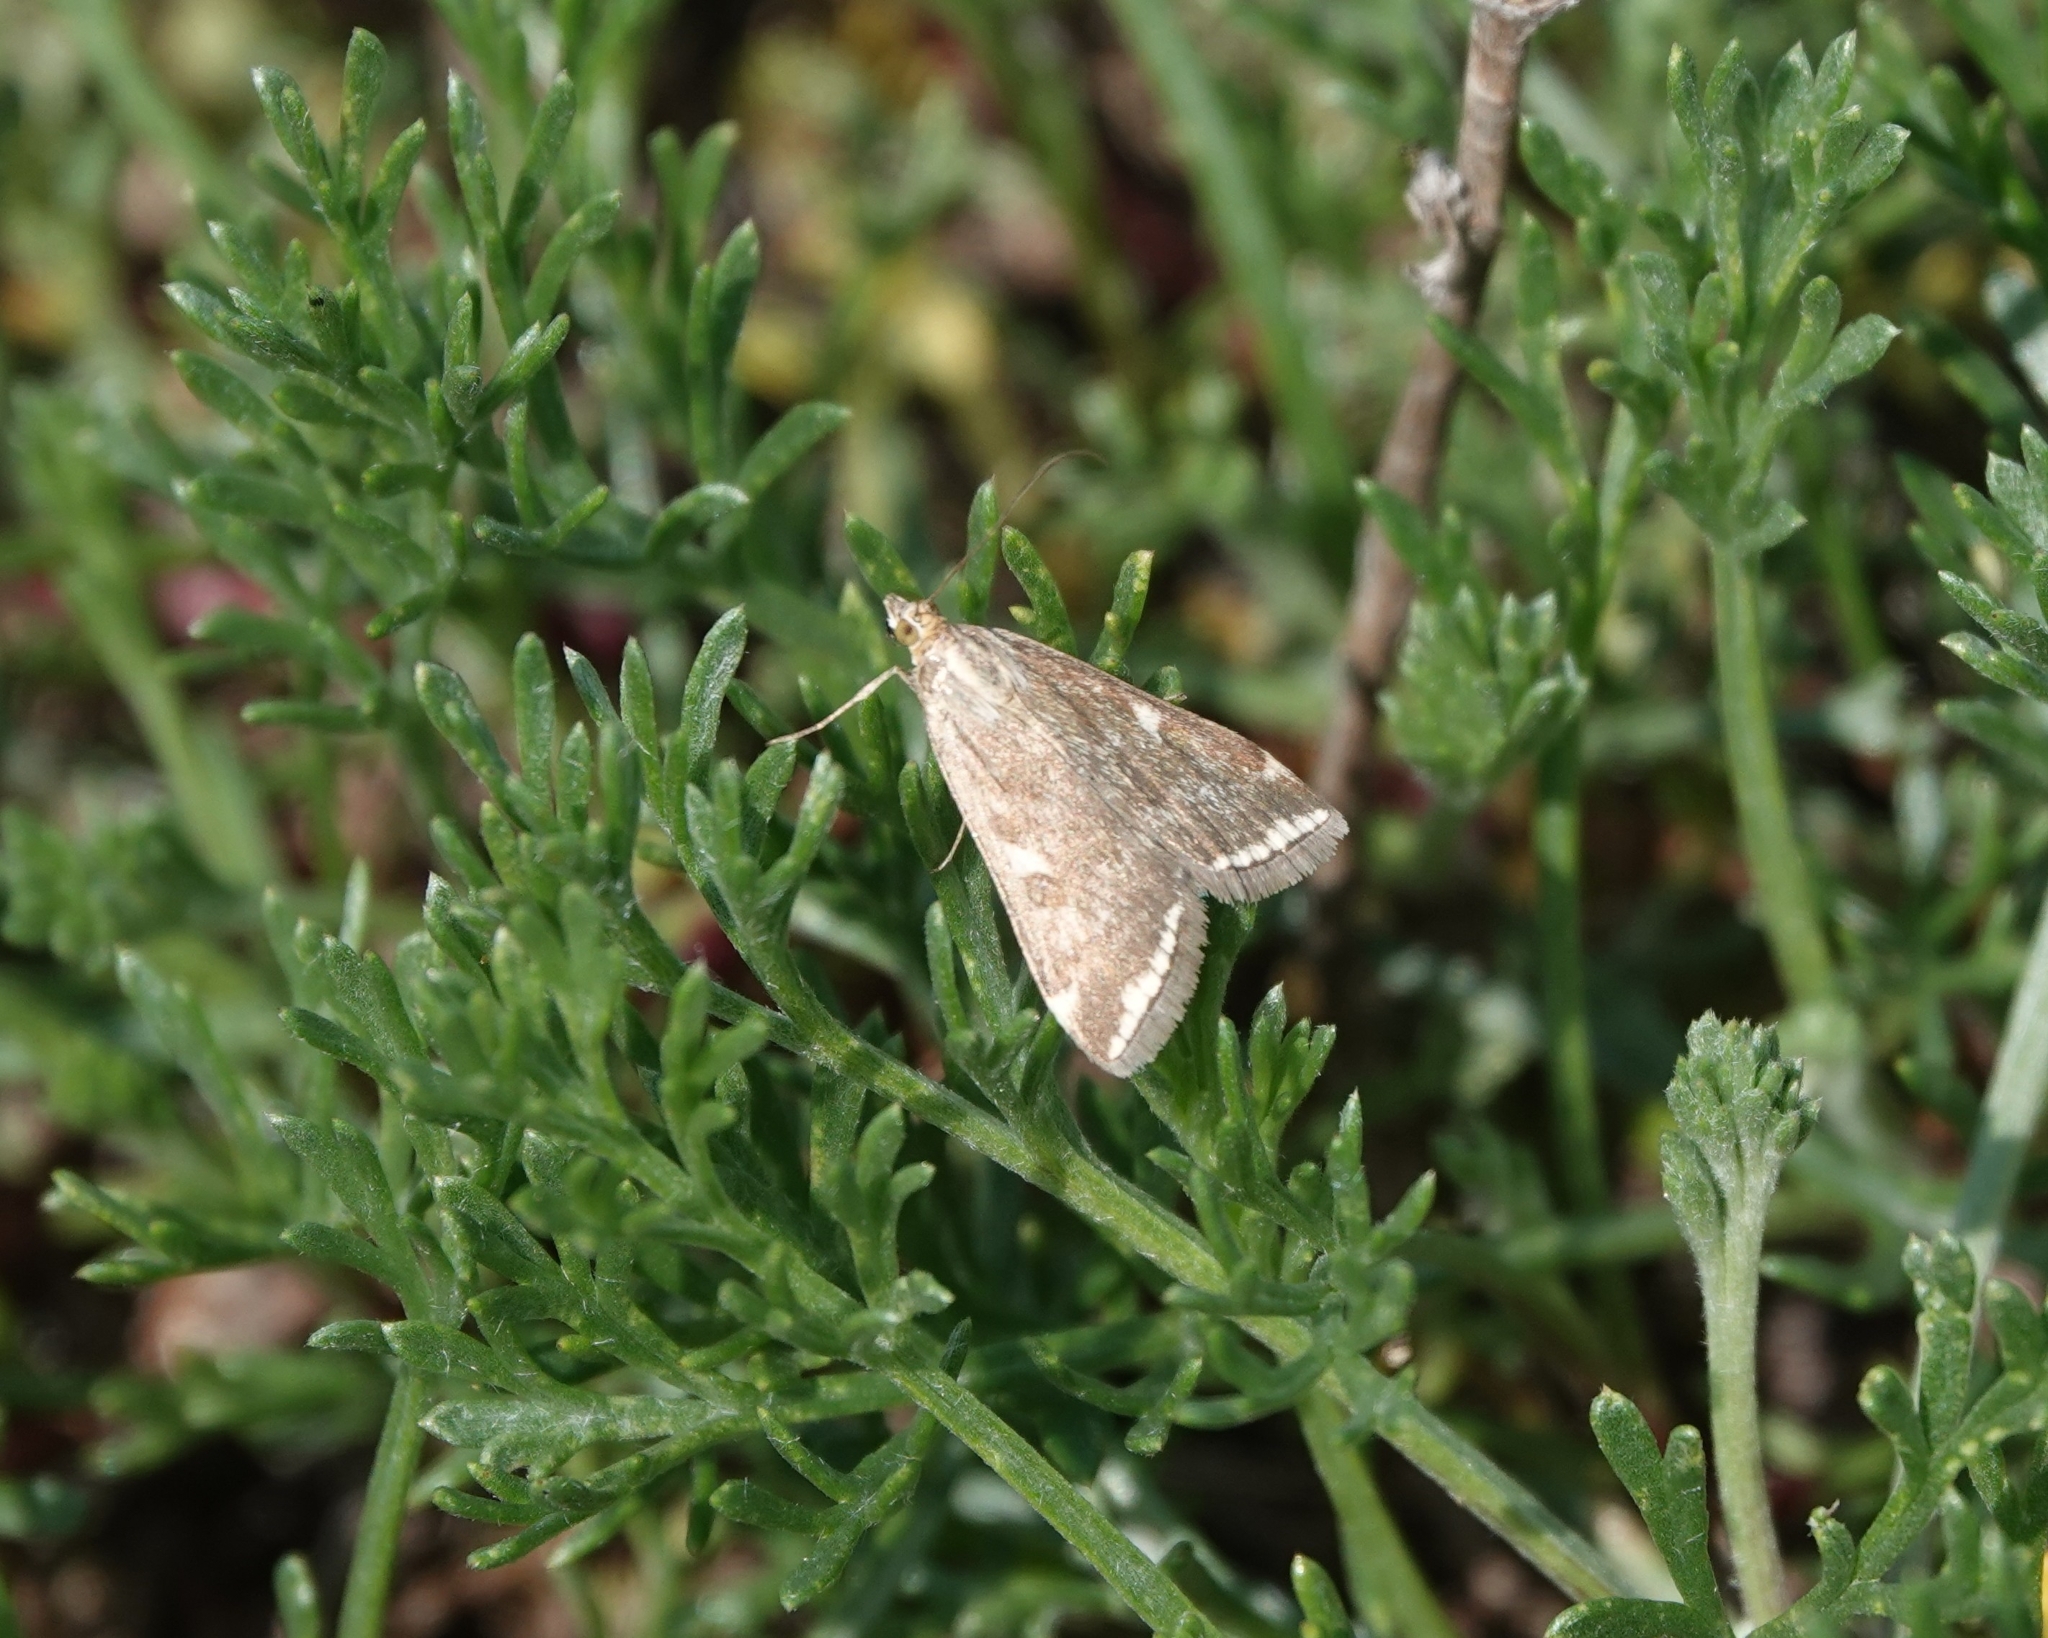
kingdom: Animalia
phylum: Arthropoda
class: Insecta
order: Lepidoptera
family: Crambidae
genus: Loxostege
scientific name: Loxostege sticticalis
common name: Crambid moth
